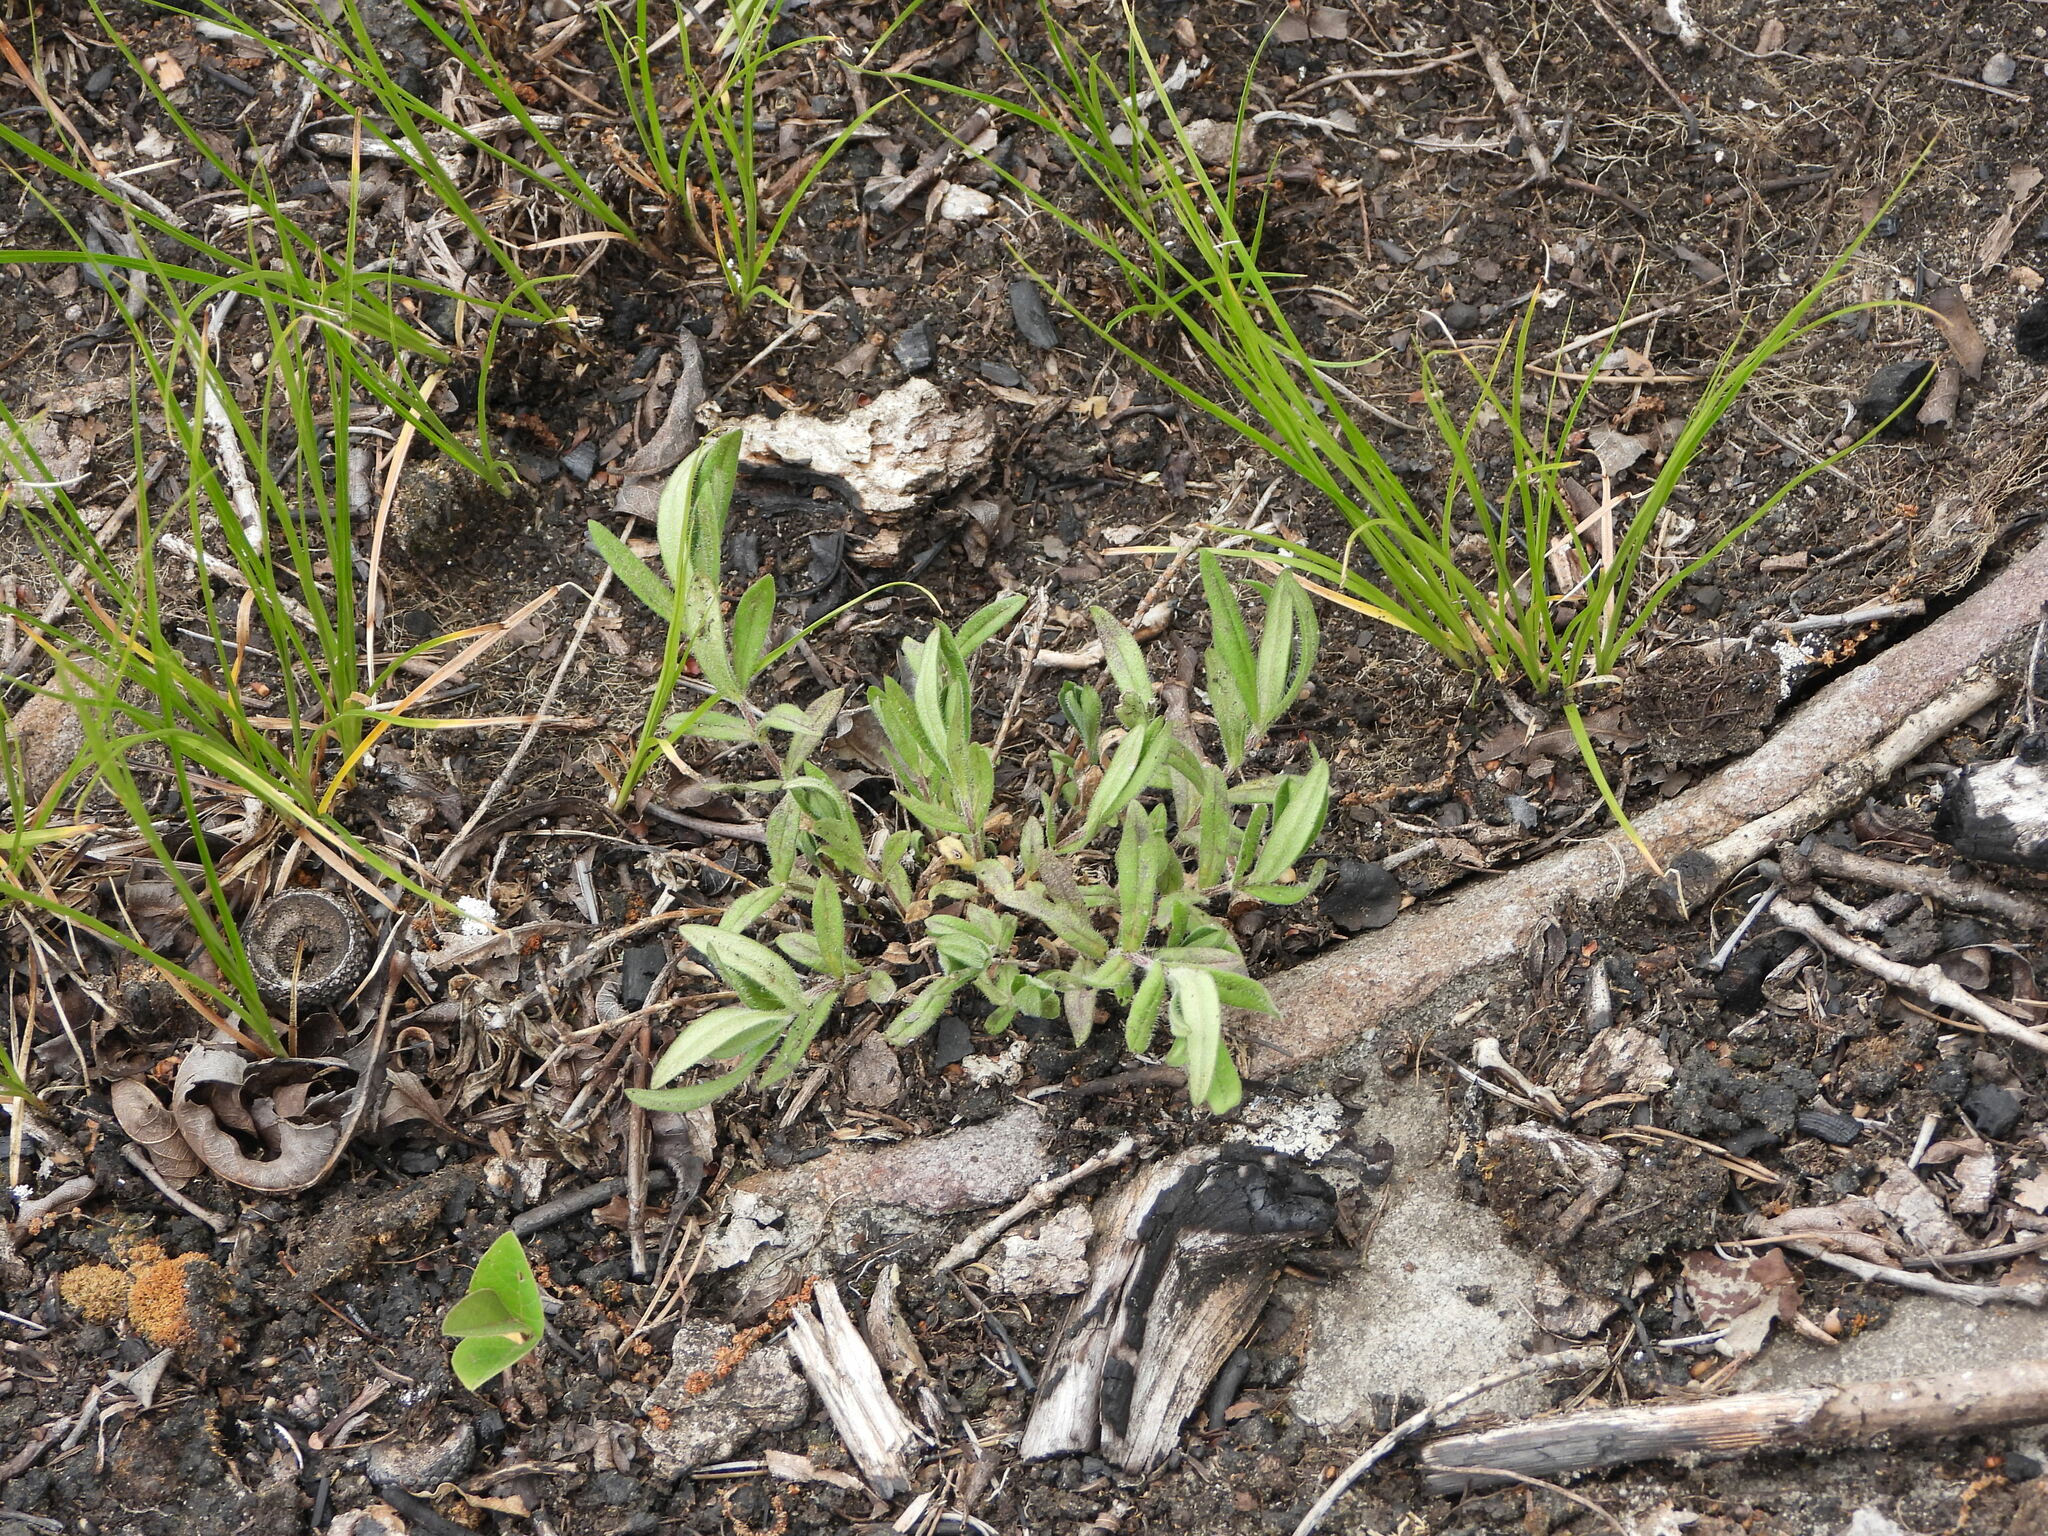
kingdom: Plantae
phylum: Tracheophyta
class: Magnoliopsida
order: Ericales
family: Polemoniaceae
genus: Phlox
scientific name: Phlox amoena
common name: Hairy phlox
